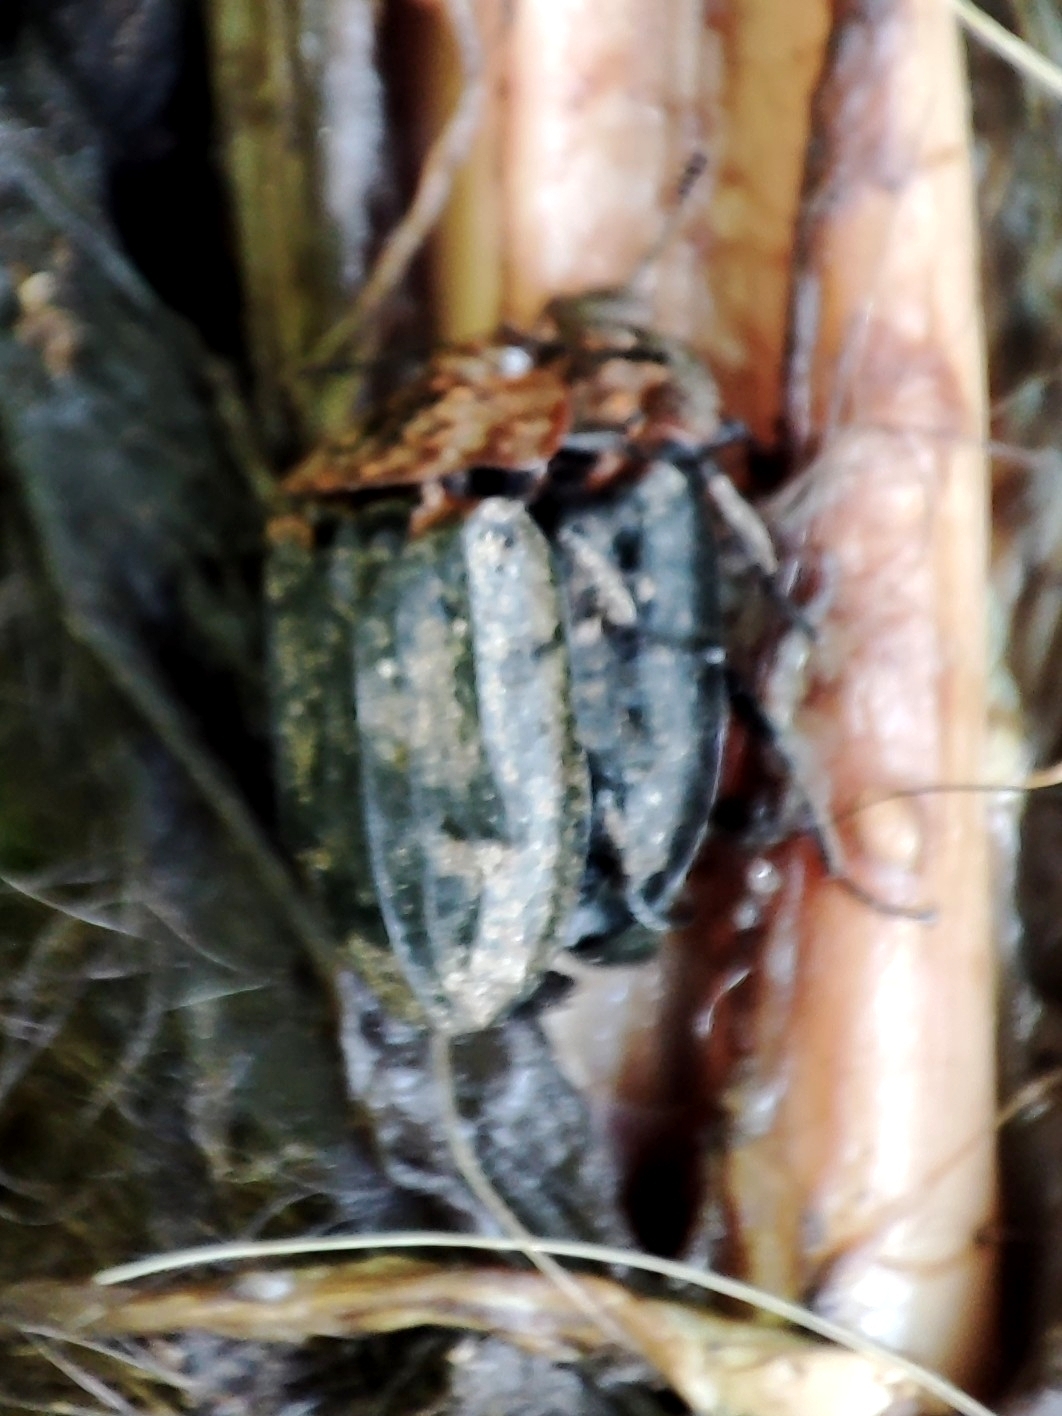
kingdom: Animalia
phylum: Arthropoda
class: Insecta
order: Coleoptera
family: Staphylinidae
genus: Oiceoptoma
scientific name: Oiceoptoma thoracicum
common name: Red-breasted carrion beetle
